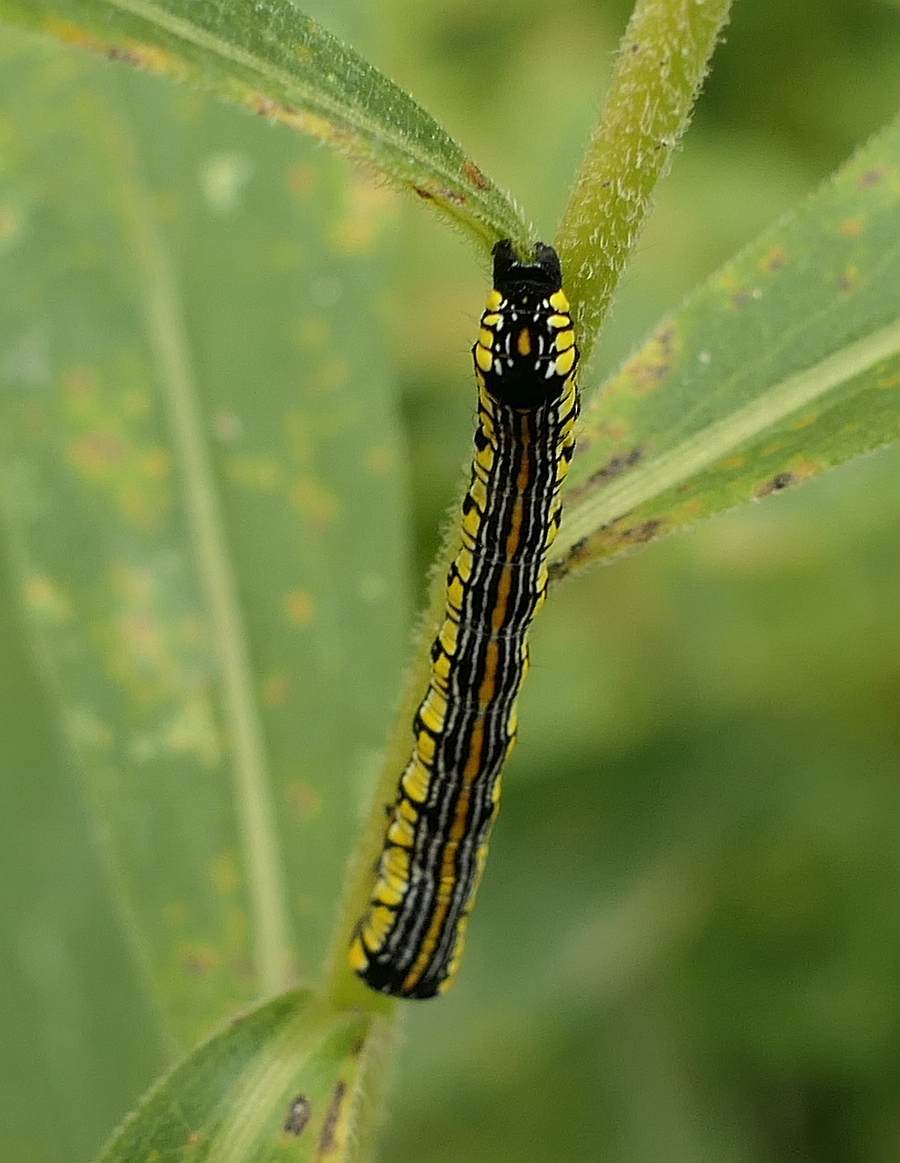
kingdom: Animalia
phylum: Arthropoda
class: Insecta
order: Lepidoptera
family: Noctuidae
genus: Cucullia
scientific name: Cucullia convexipennis
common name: Brown-hooded owlet
